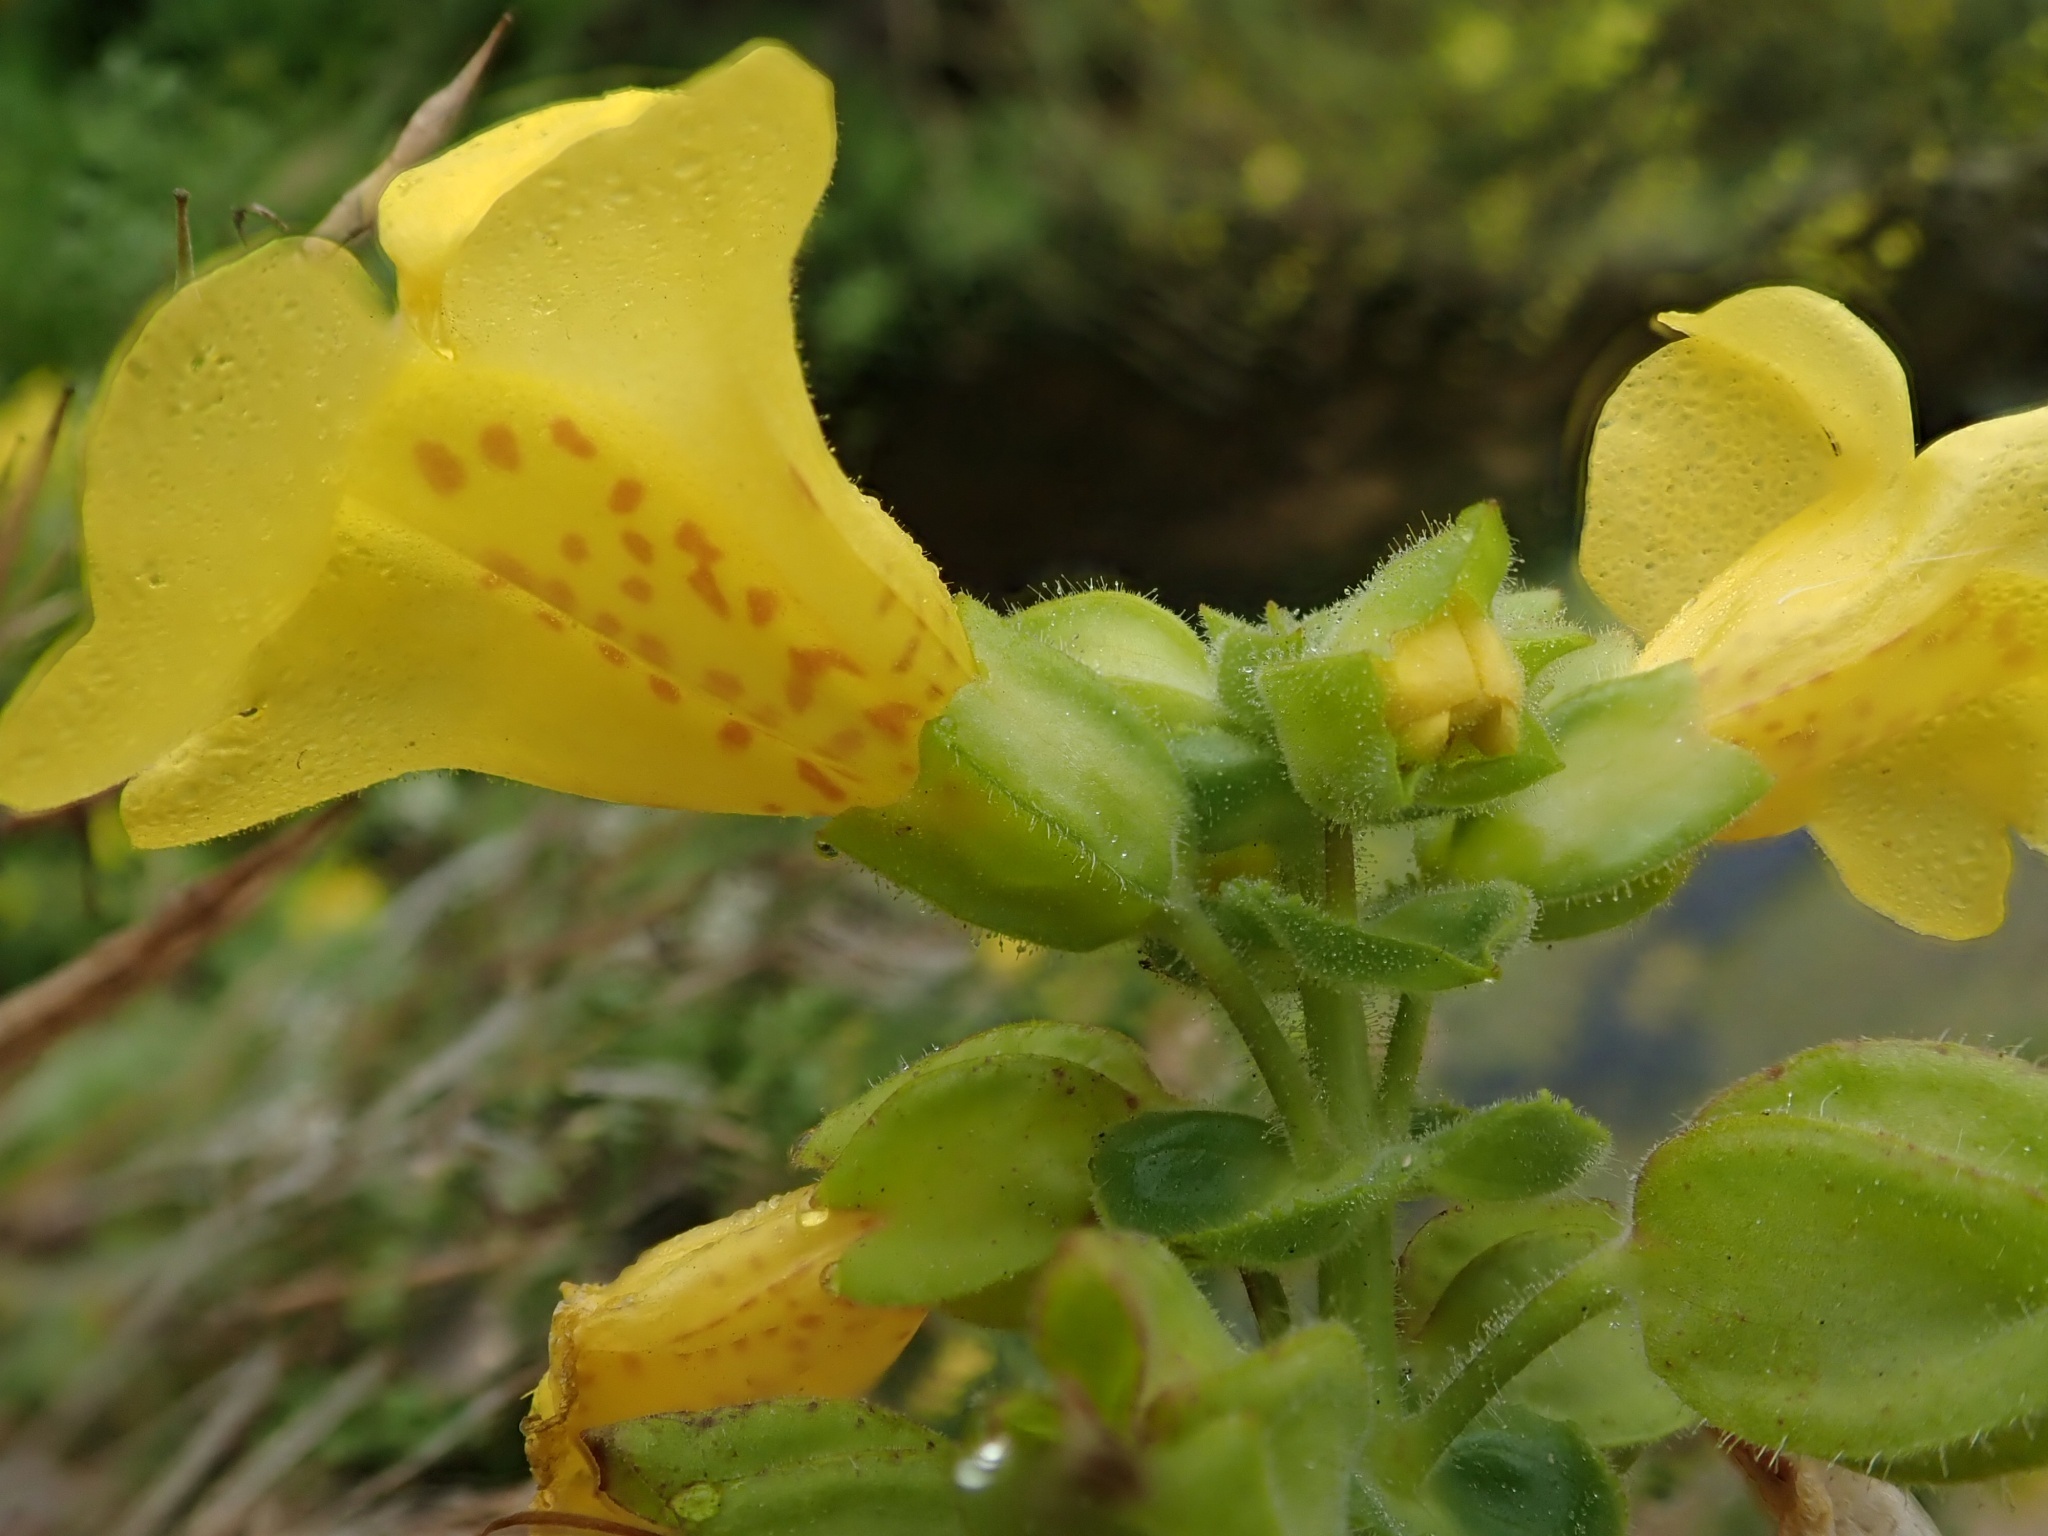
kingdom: Plantae
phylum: Tracheophyta
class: Magnoliopsida
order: Lamiales
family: Phrymaceae
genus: Erythranthe
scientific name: Erythranthe grandis
